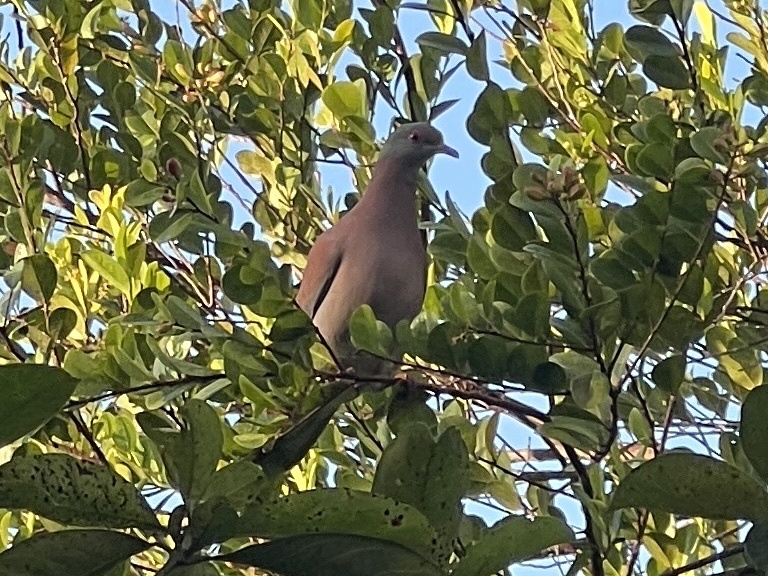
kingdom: Animalia
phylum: Chordata
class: Aves
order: Columbiformes
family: Columbidae
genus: Patagioenas
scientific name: Patagioenas cayennensis
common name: Pale-vented pigeon
